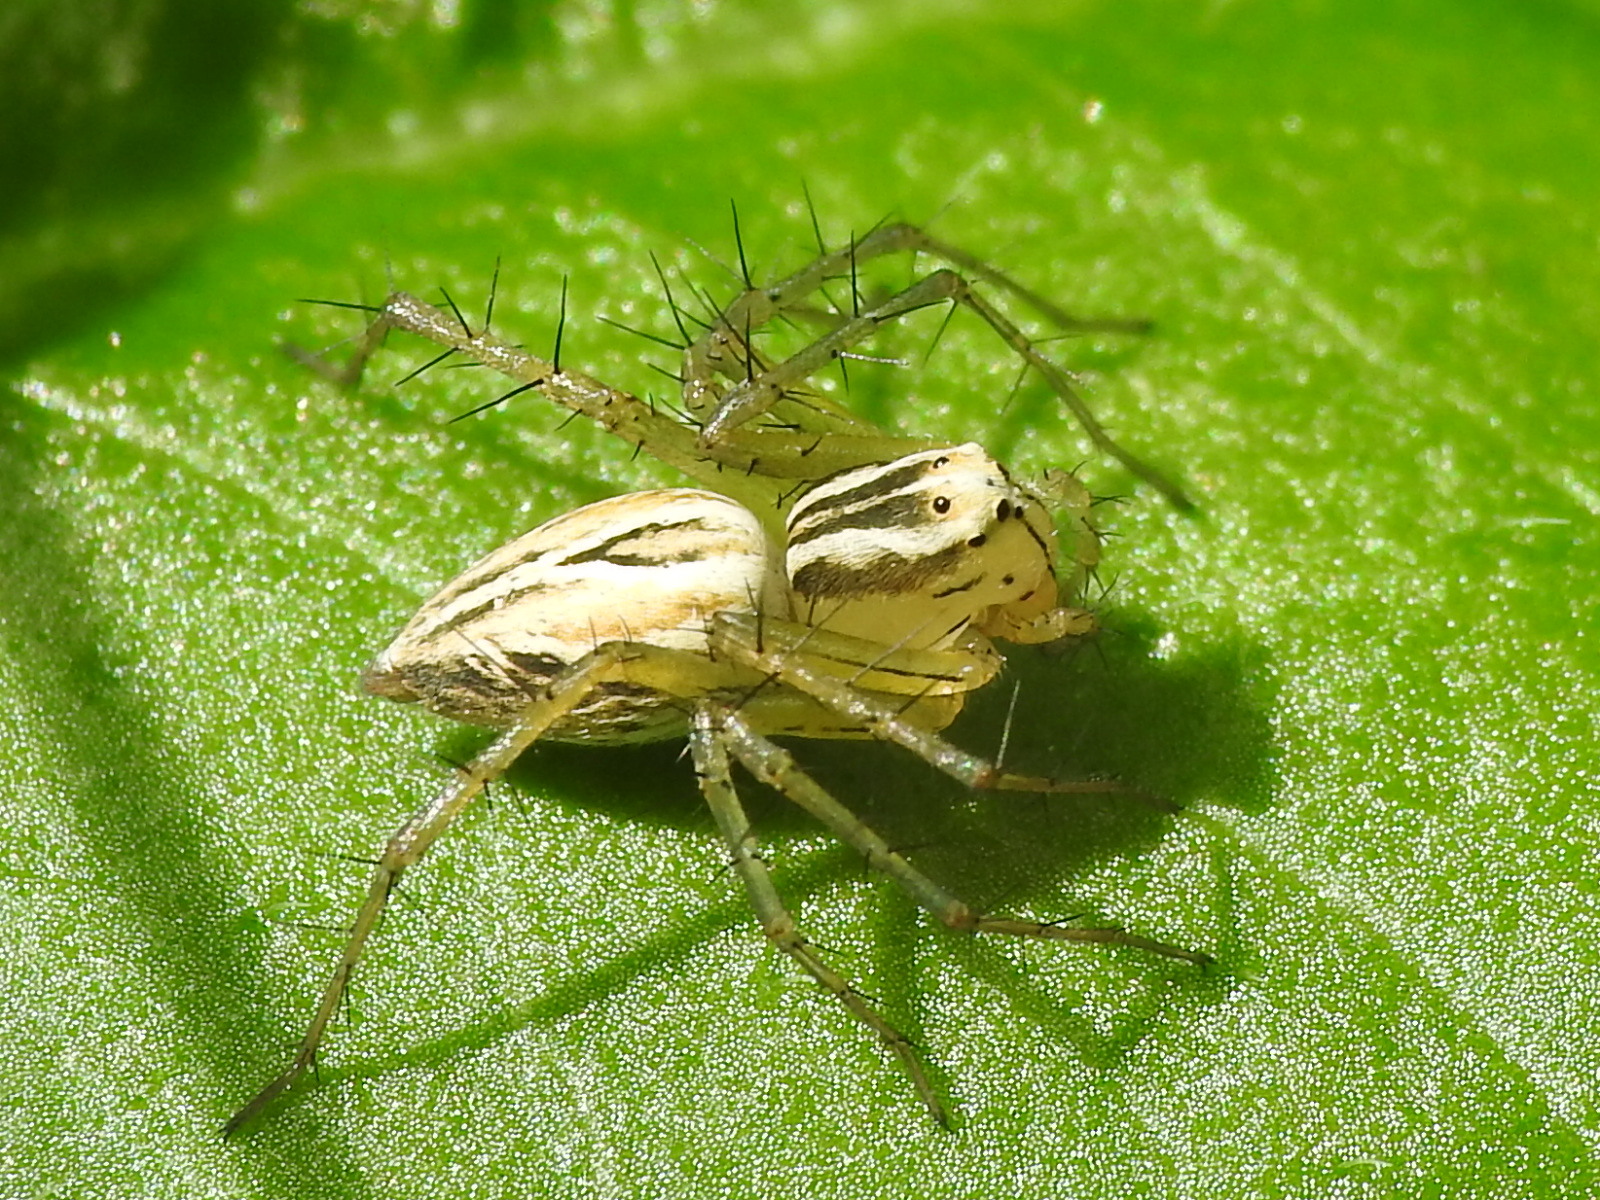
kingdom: Animalia
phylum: Arthropoda
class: Arachnida
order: Araneae
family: Oxyopidae
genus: Oxyopes
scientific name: Oxyopes salticus
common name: Lynx spiders
